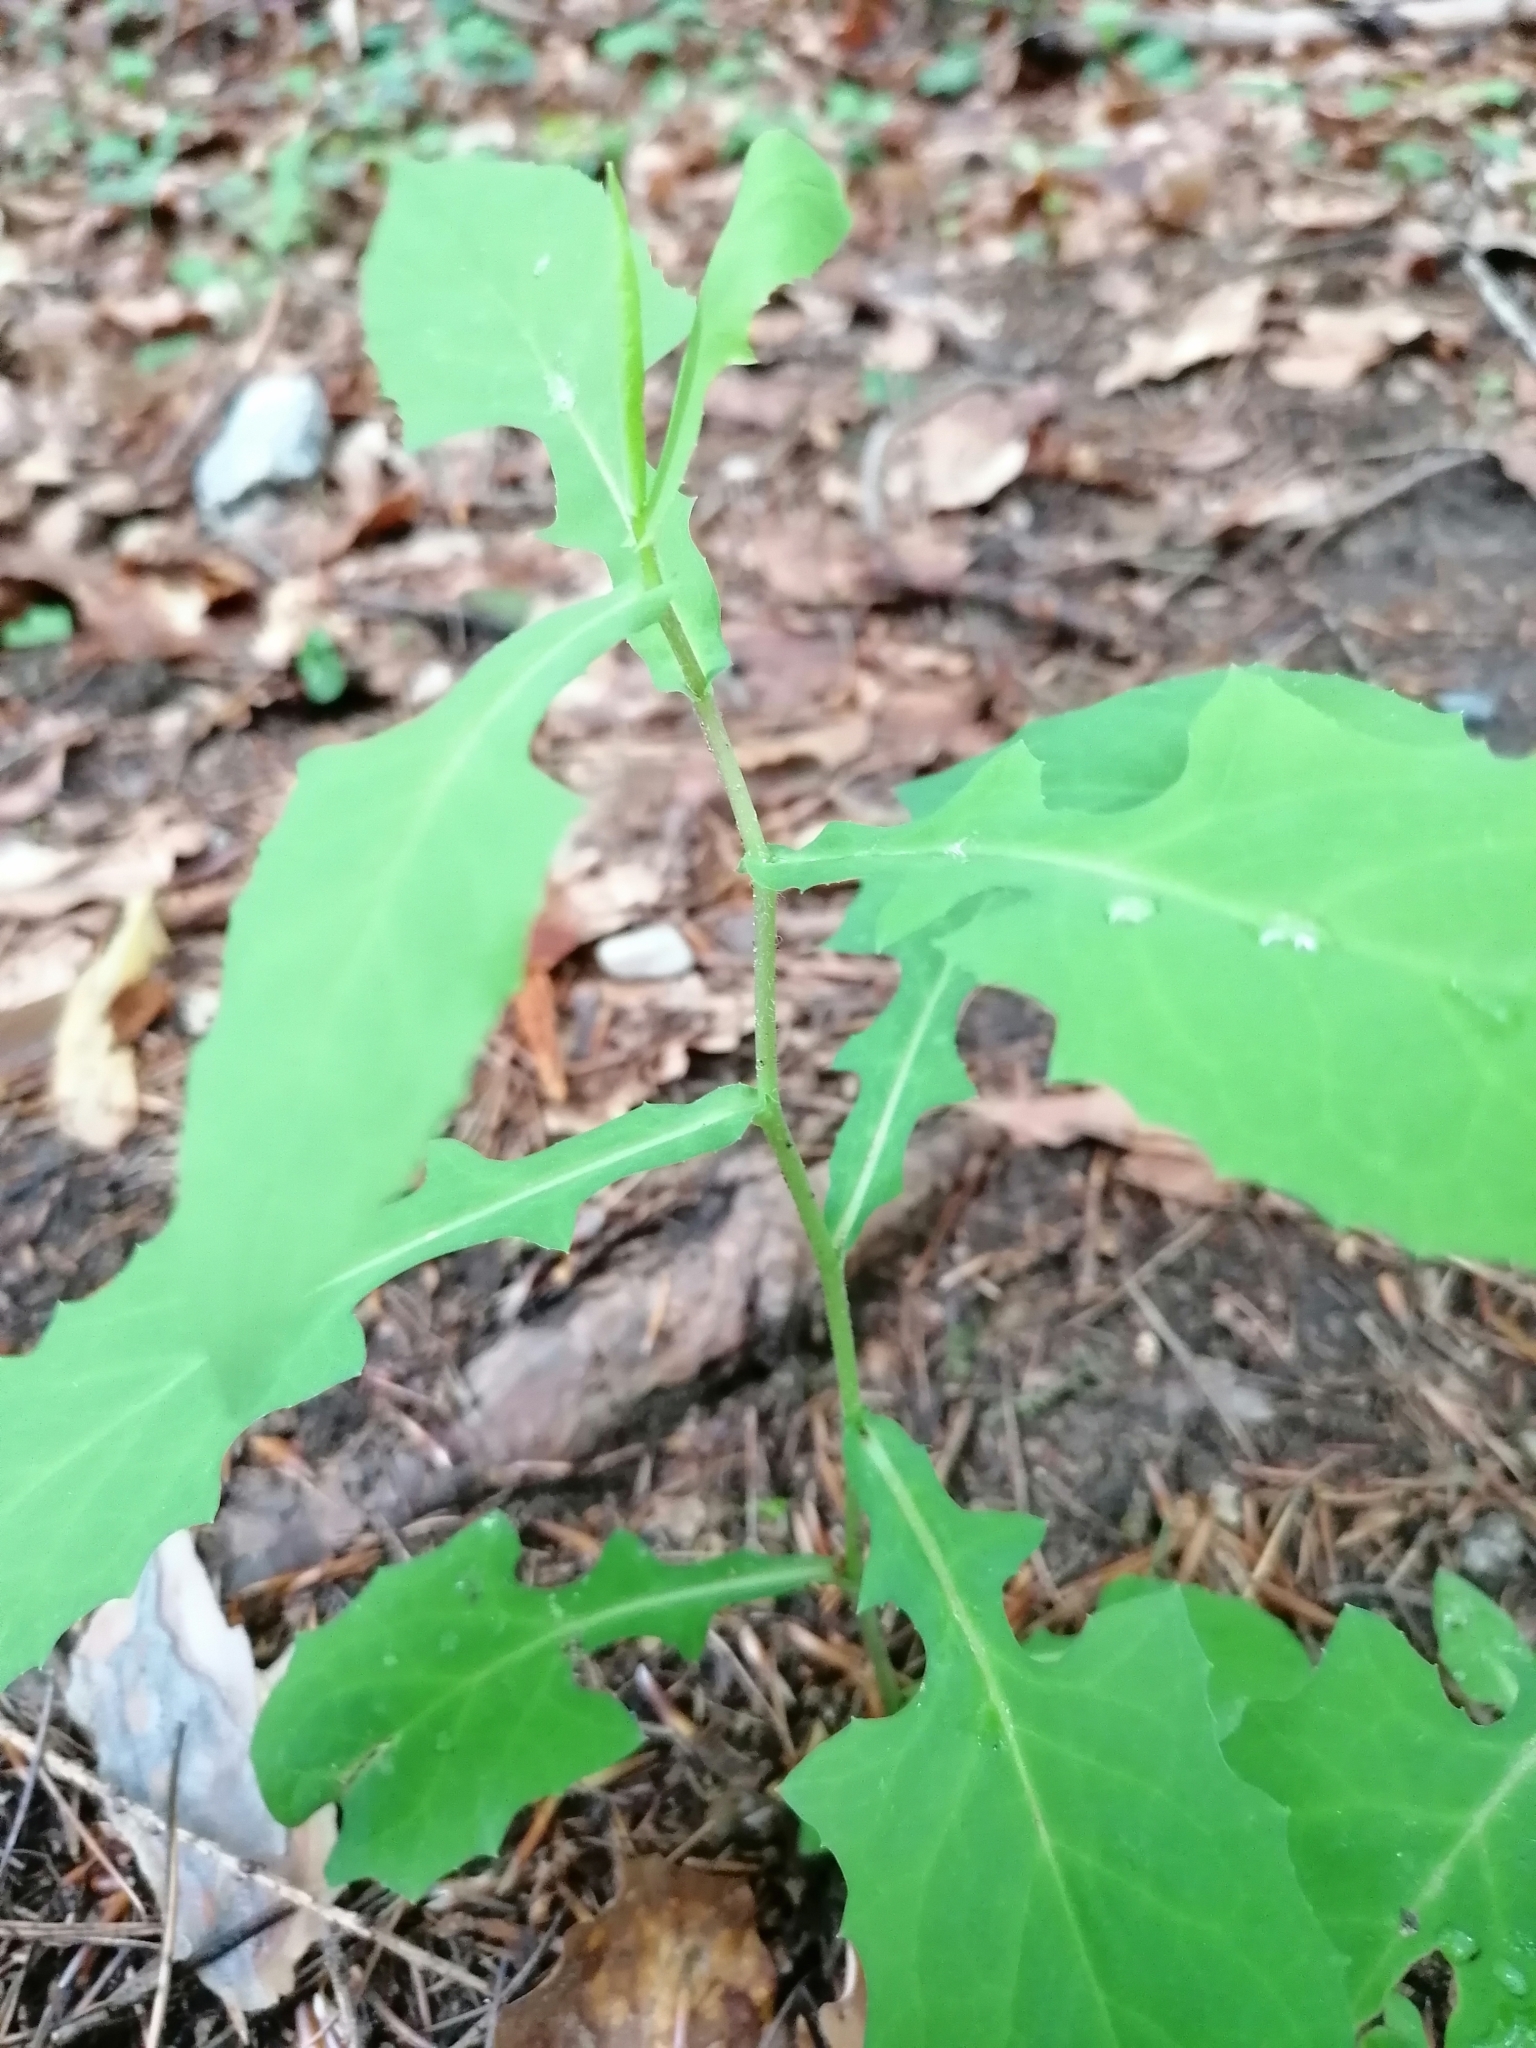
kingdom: Plantae
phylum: Tracheophyta
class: Magnoliopsida
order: Asterales
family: Asteraceae
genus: Prenanthes
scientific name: Prenanthes purpurea
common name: Purple lettuce
